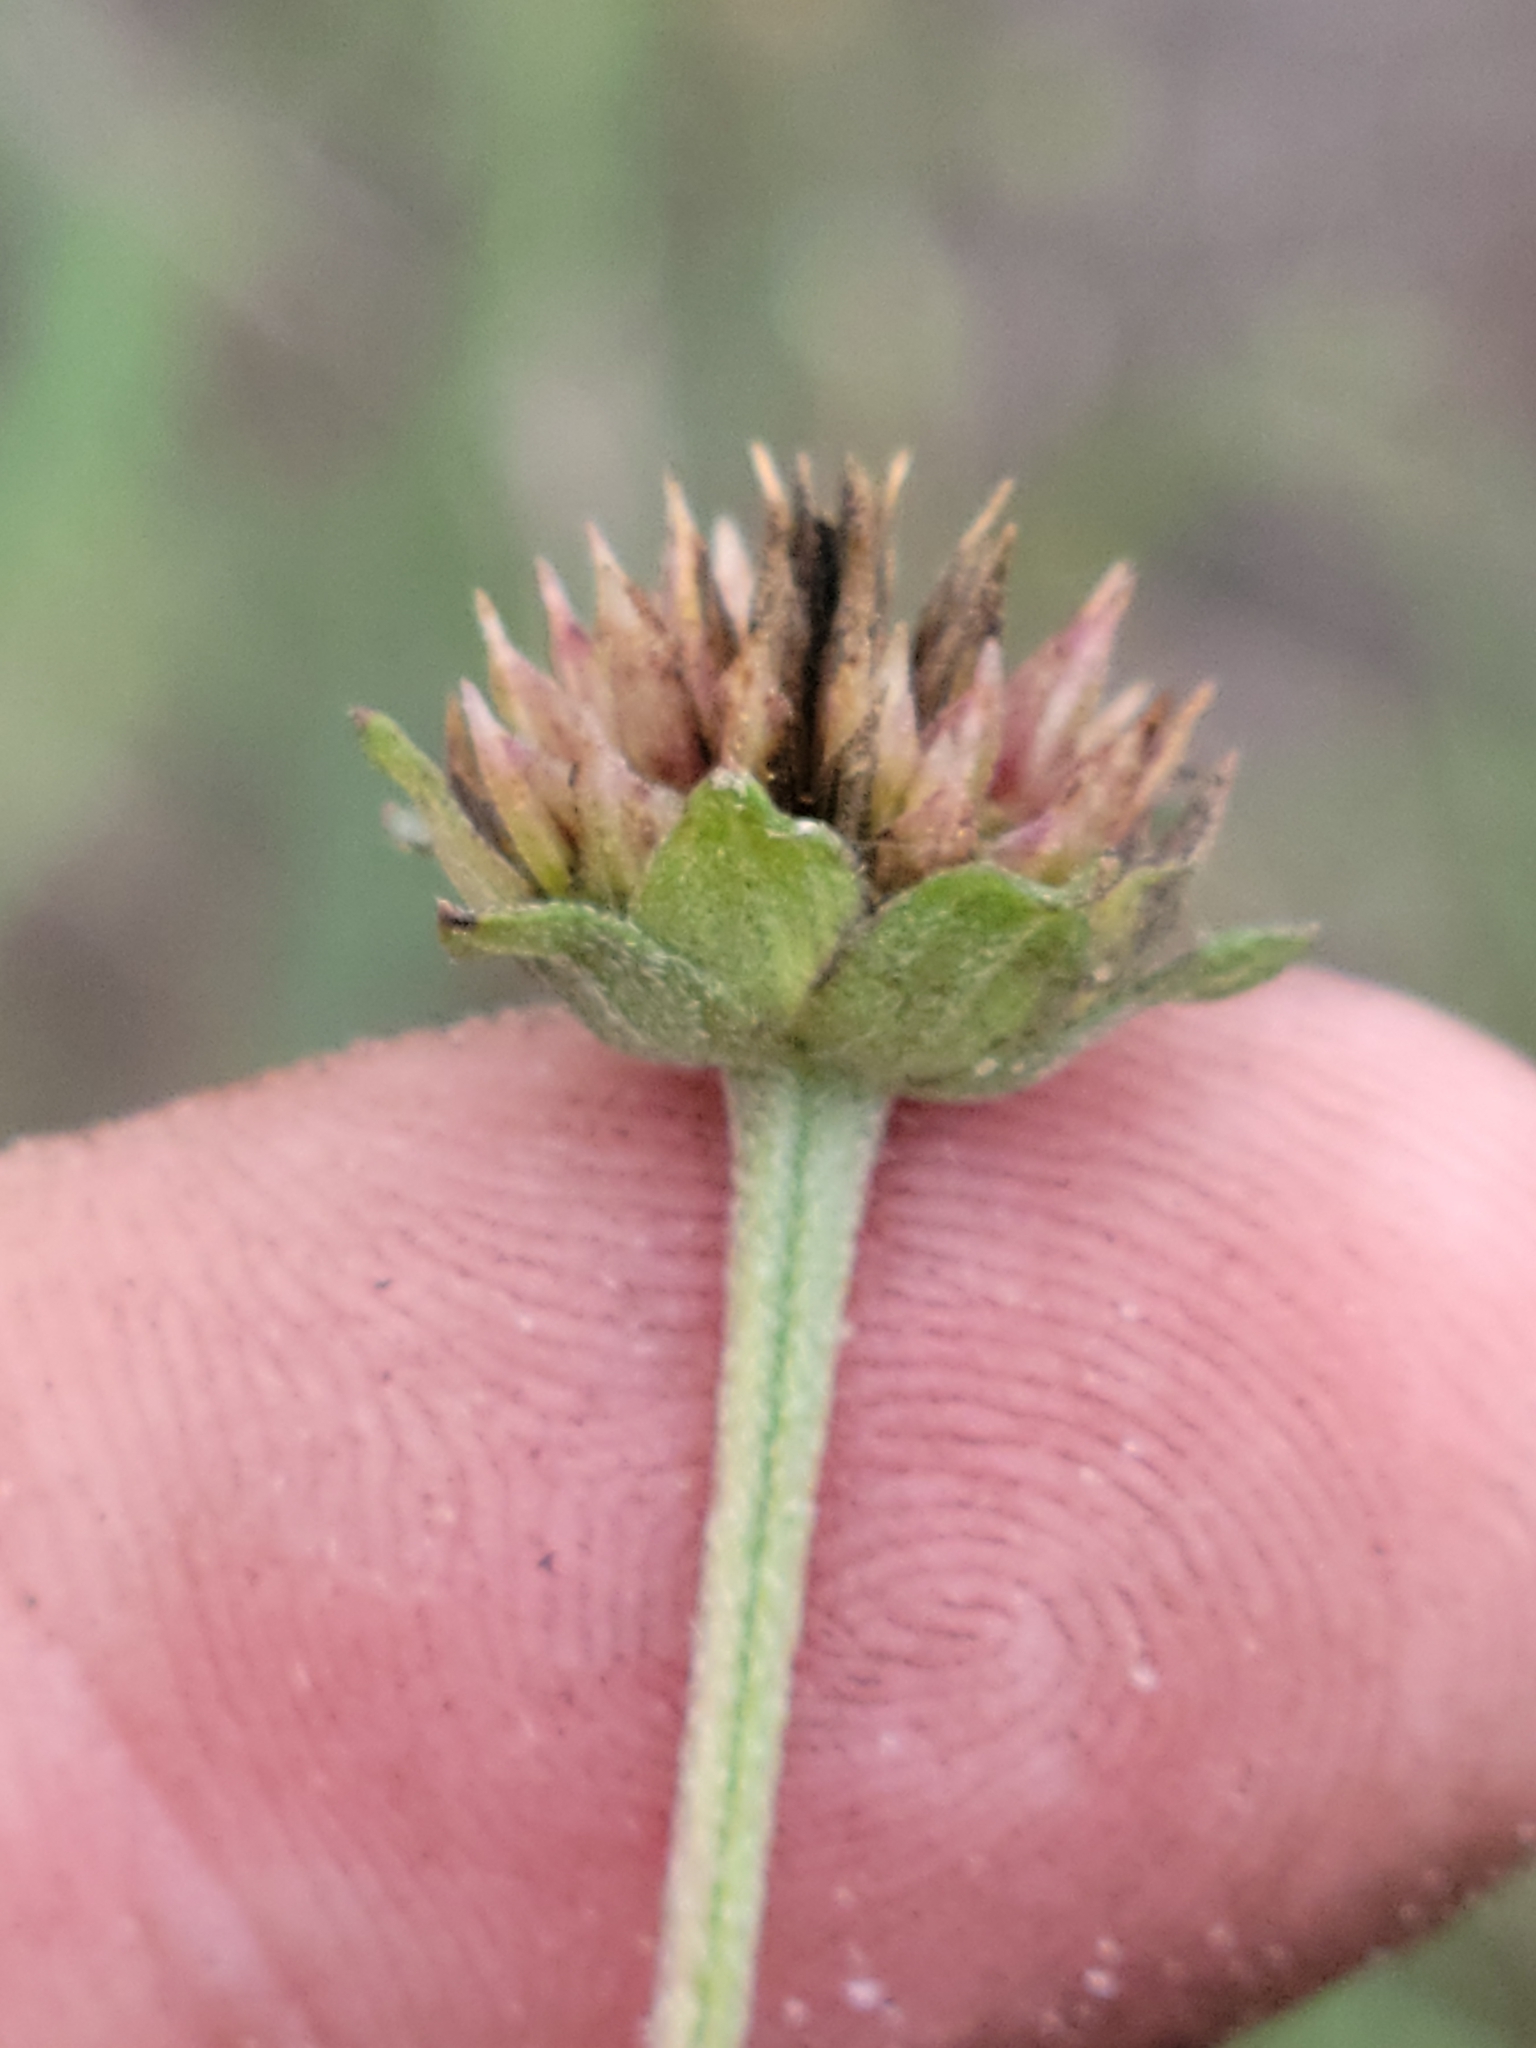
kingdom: Plantae
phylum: Tracheophyta
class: Magnoliopsida
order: Asterales
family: Asteraceae
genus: Melanthera
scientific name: Melanthera nivea
